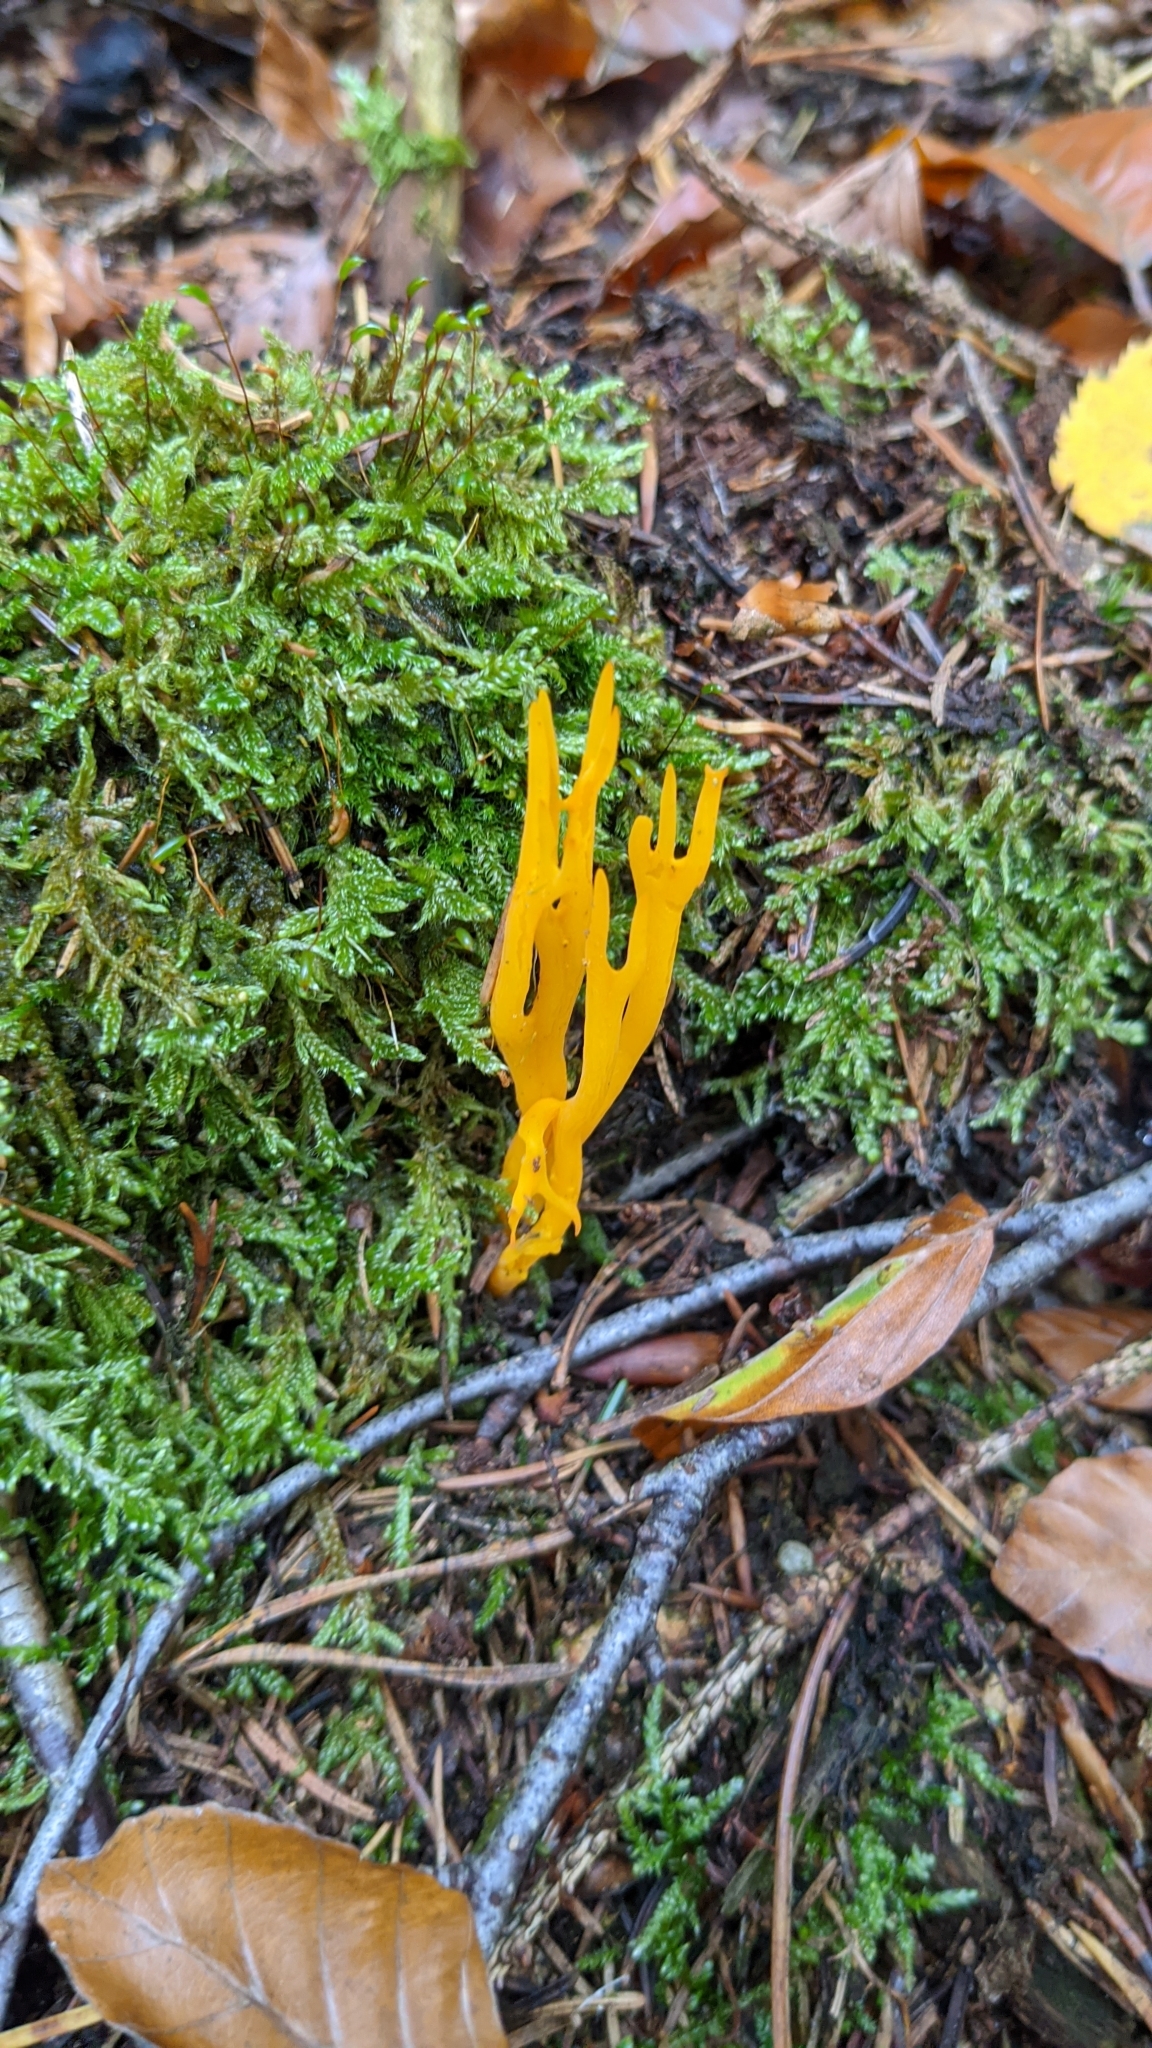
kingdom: Fungi
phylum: Basidiomycota
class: Dacrymycetes
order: Dacrymycetales
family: Dacrymycetaceae
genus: Calocera
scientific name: Calocera viscosa
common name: Yellow stagshorn
